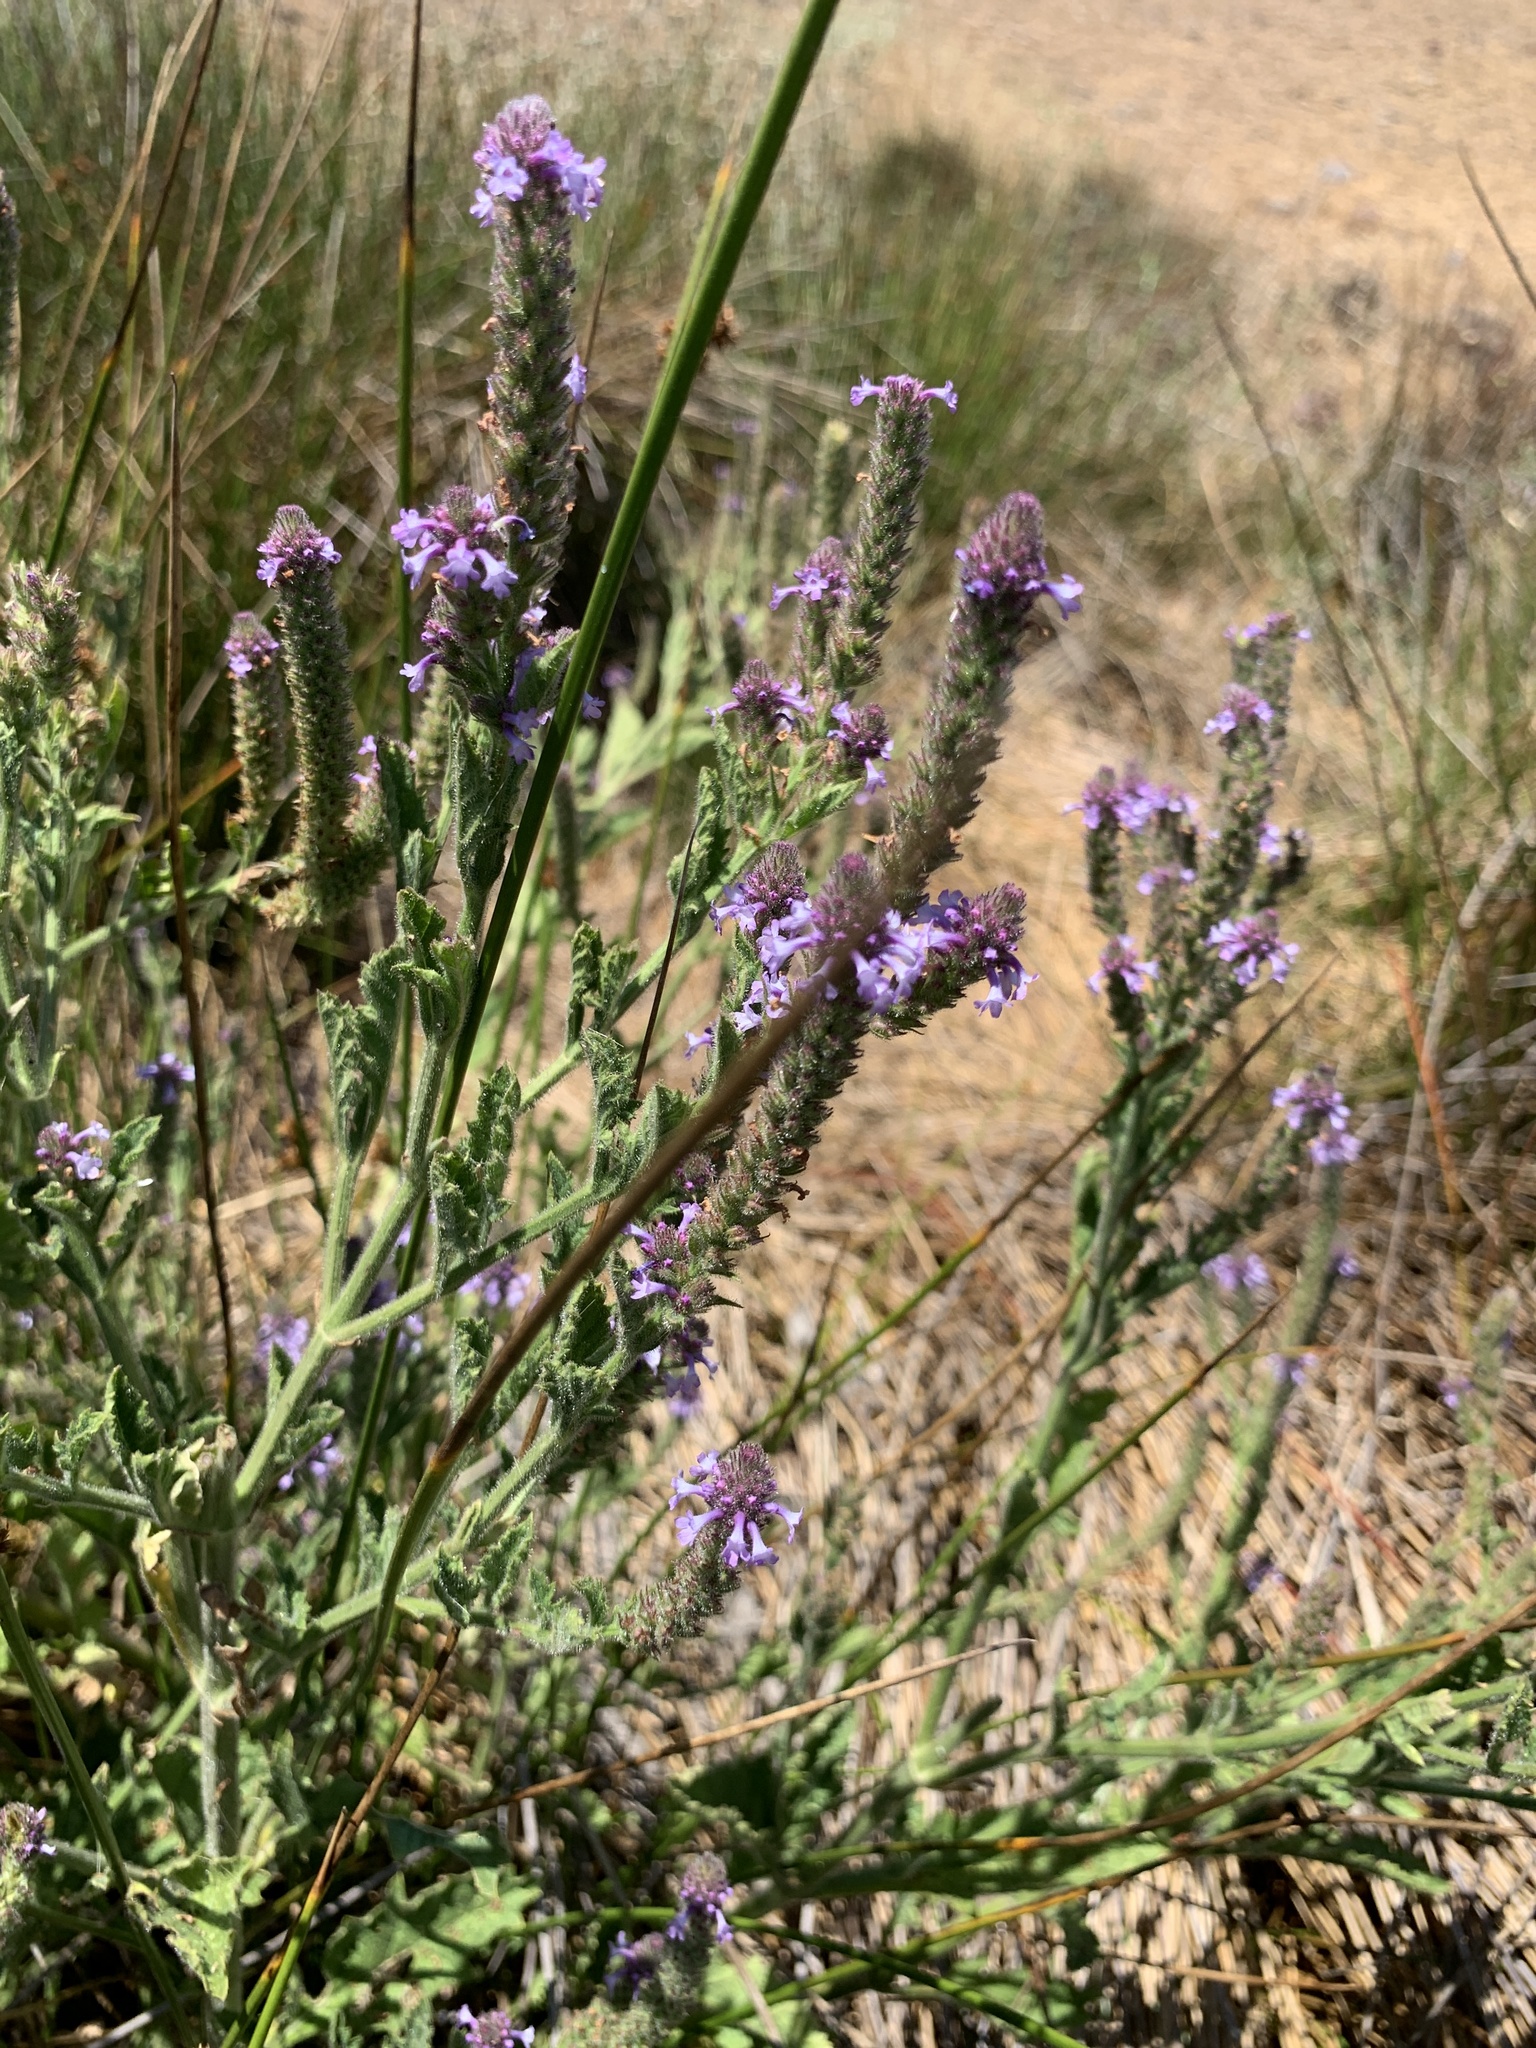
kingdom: Plantae
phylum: Tracheophyta
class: Magnoliopsida
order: Lamiales
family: Verbenaceae
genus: Verbena
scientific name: Verbena lasiostachys
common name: Vervain
